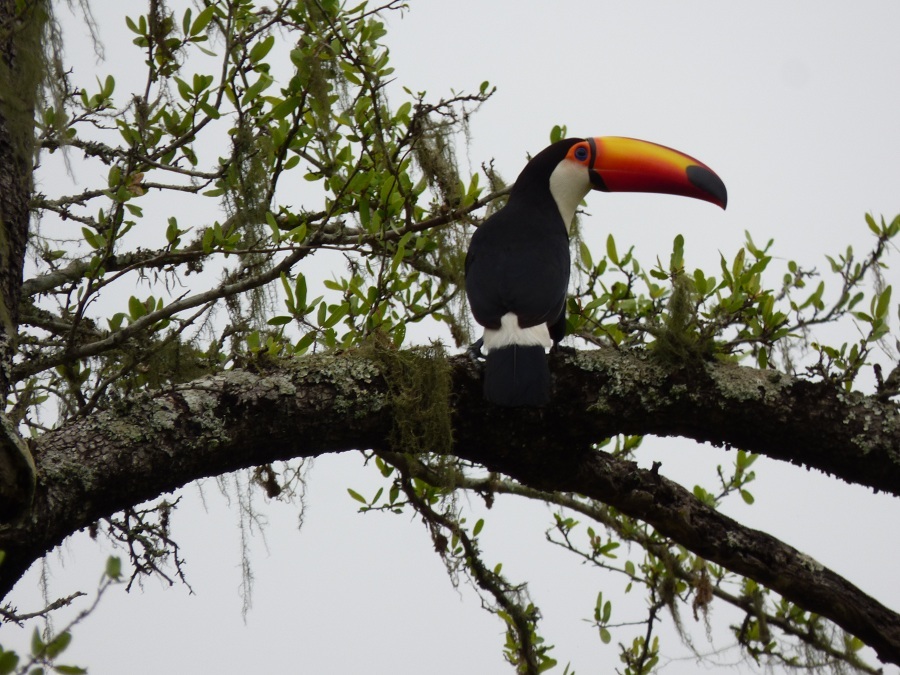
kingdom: Animalia
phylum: Chordata
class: Aves
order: Piciformes
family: Ramphastidae
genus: Ramphastos
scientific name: Ramphastos toco
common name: Toco toucan
